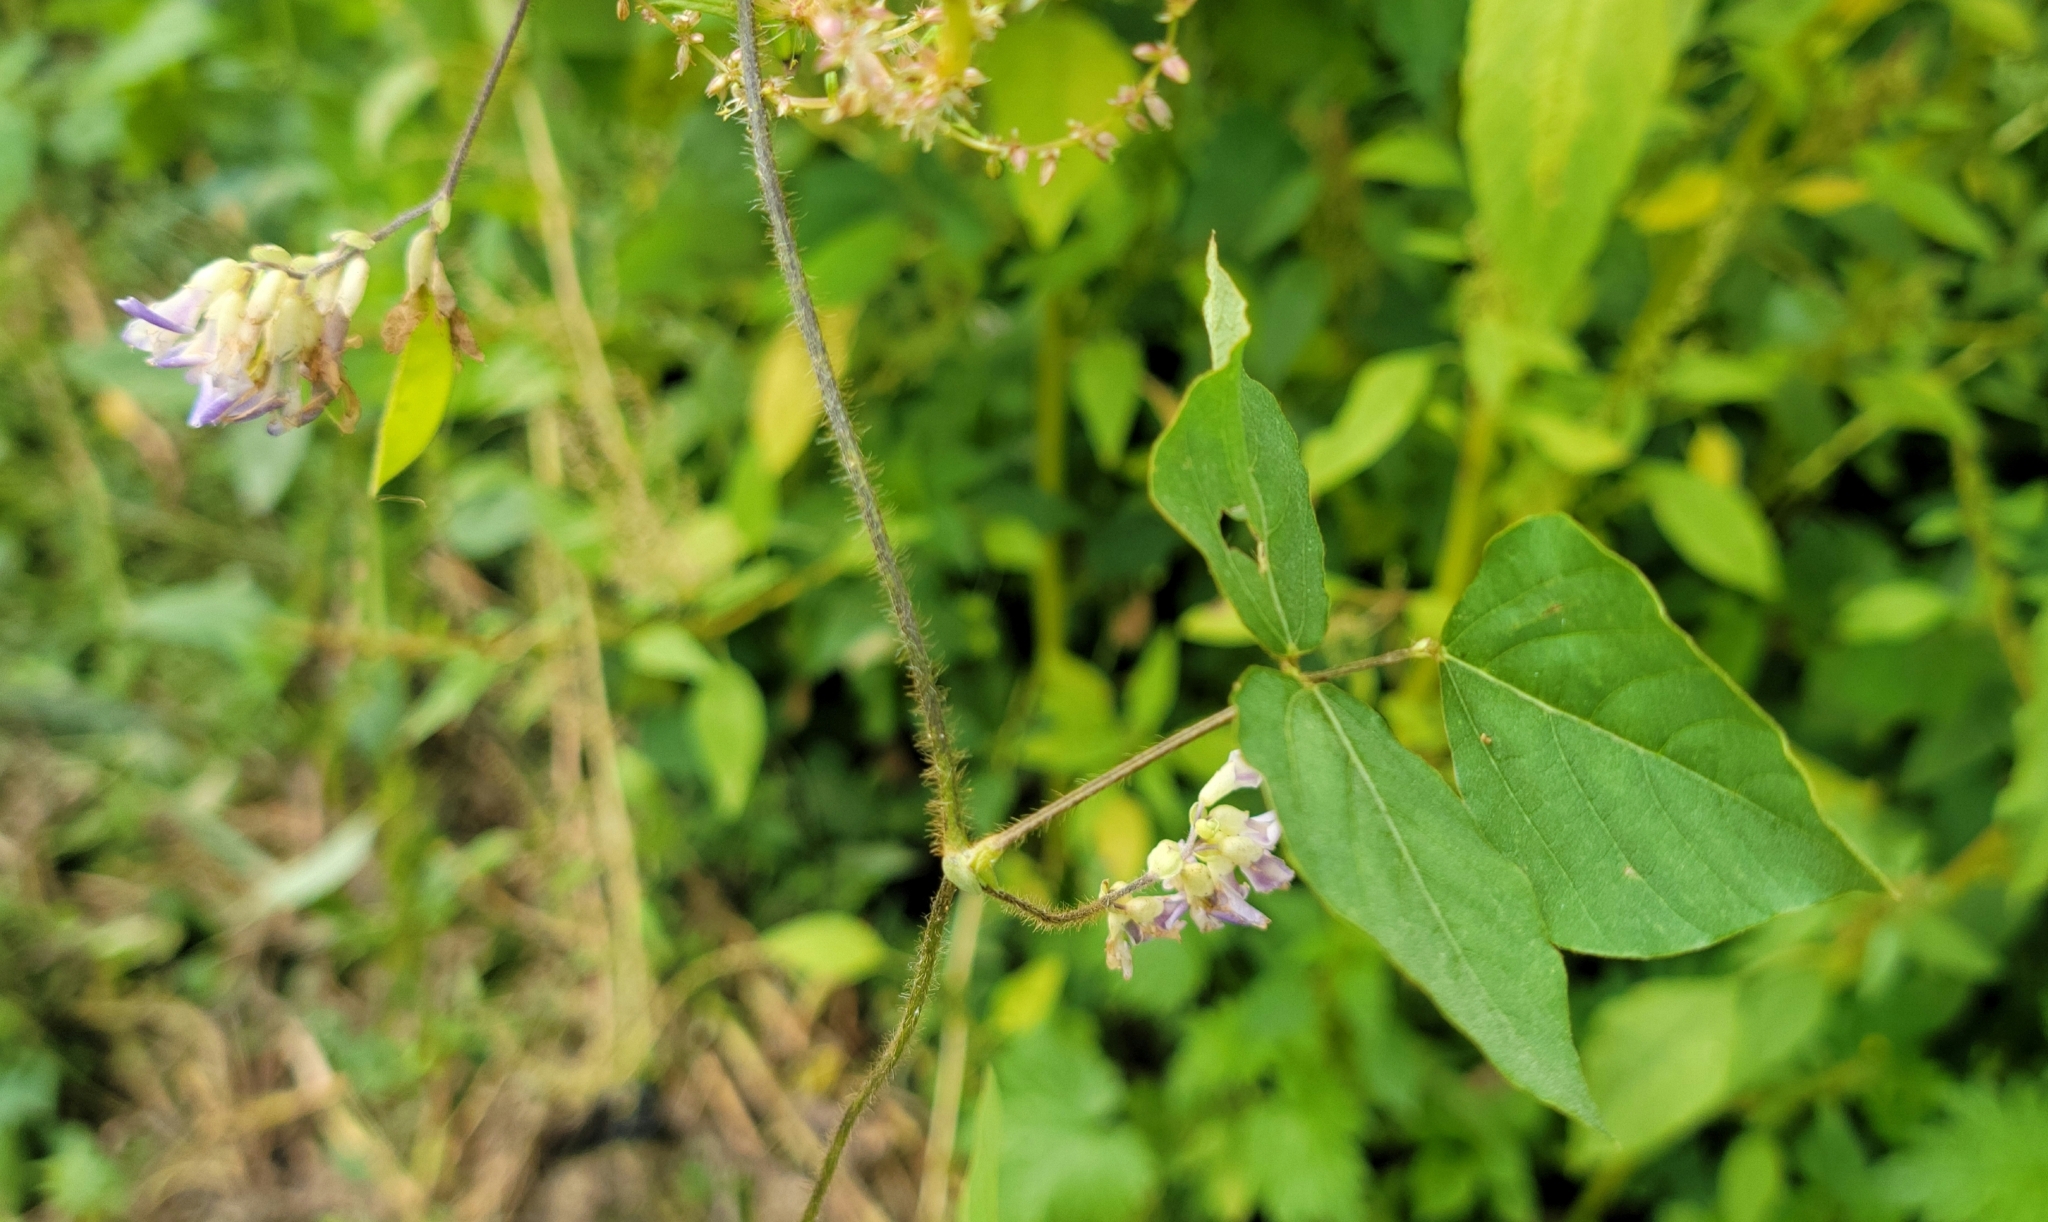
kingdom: Plantae
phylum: Tracheophyta
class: Magnoliopsida
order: Fabales
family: Fabaceae
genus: Amphicarpaea
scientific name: Amphicarpaea bracteata
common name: American hog peanut
